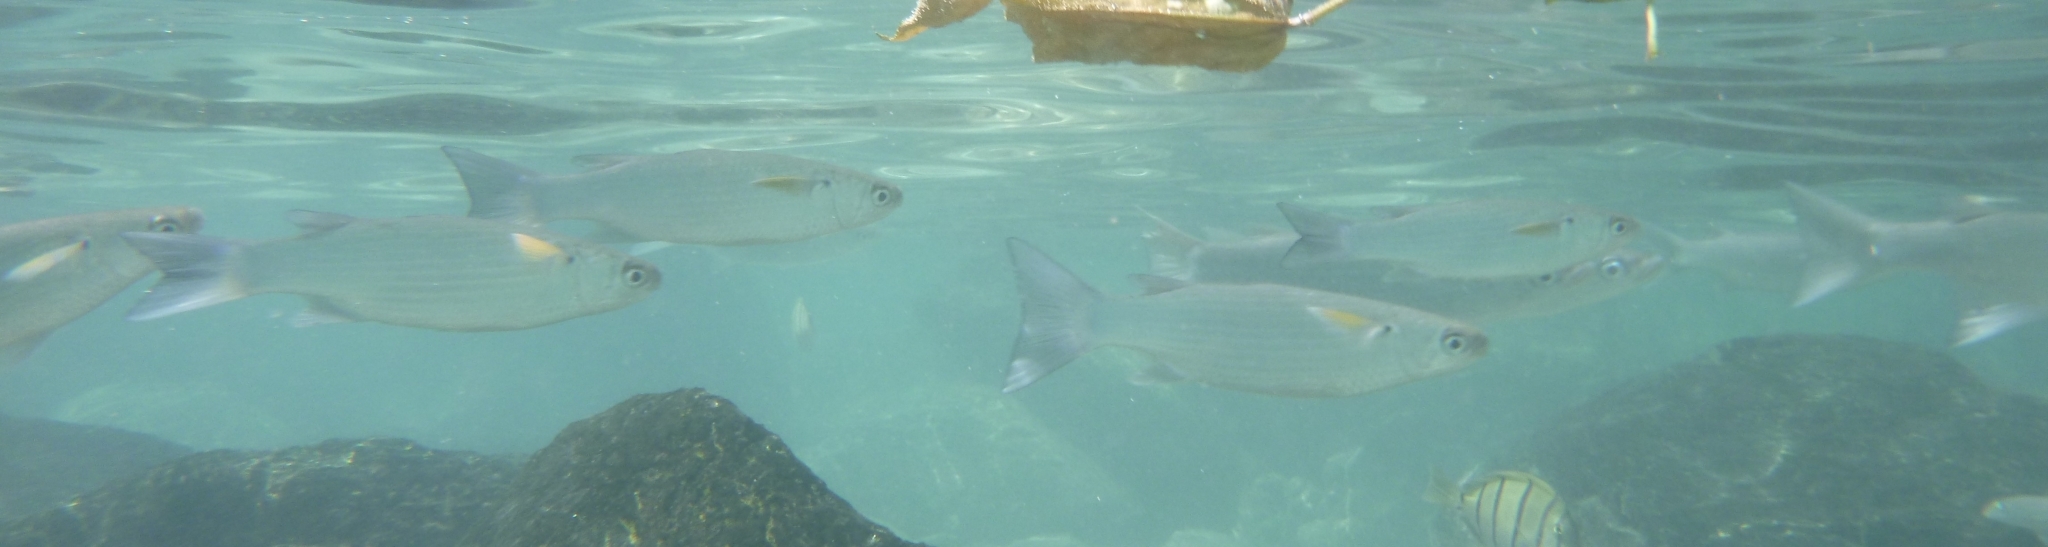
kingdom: Animalia
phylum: Chordata
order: Mugiliformes
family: Mugilidae
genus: Crenimugil
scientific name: Crenimugil heterocheilos
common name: Half fringelip mullet
